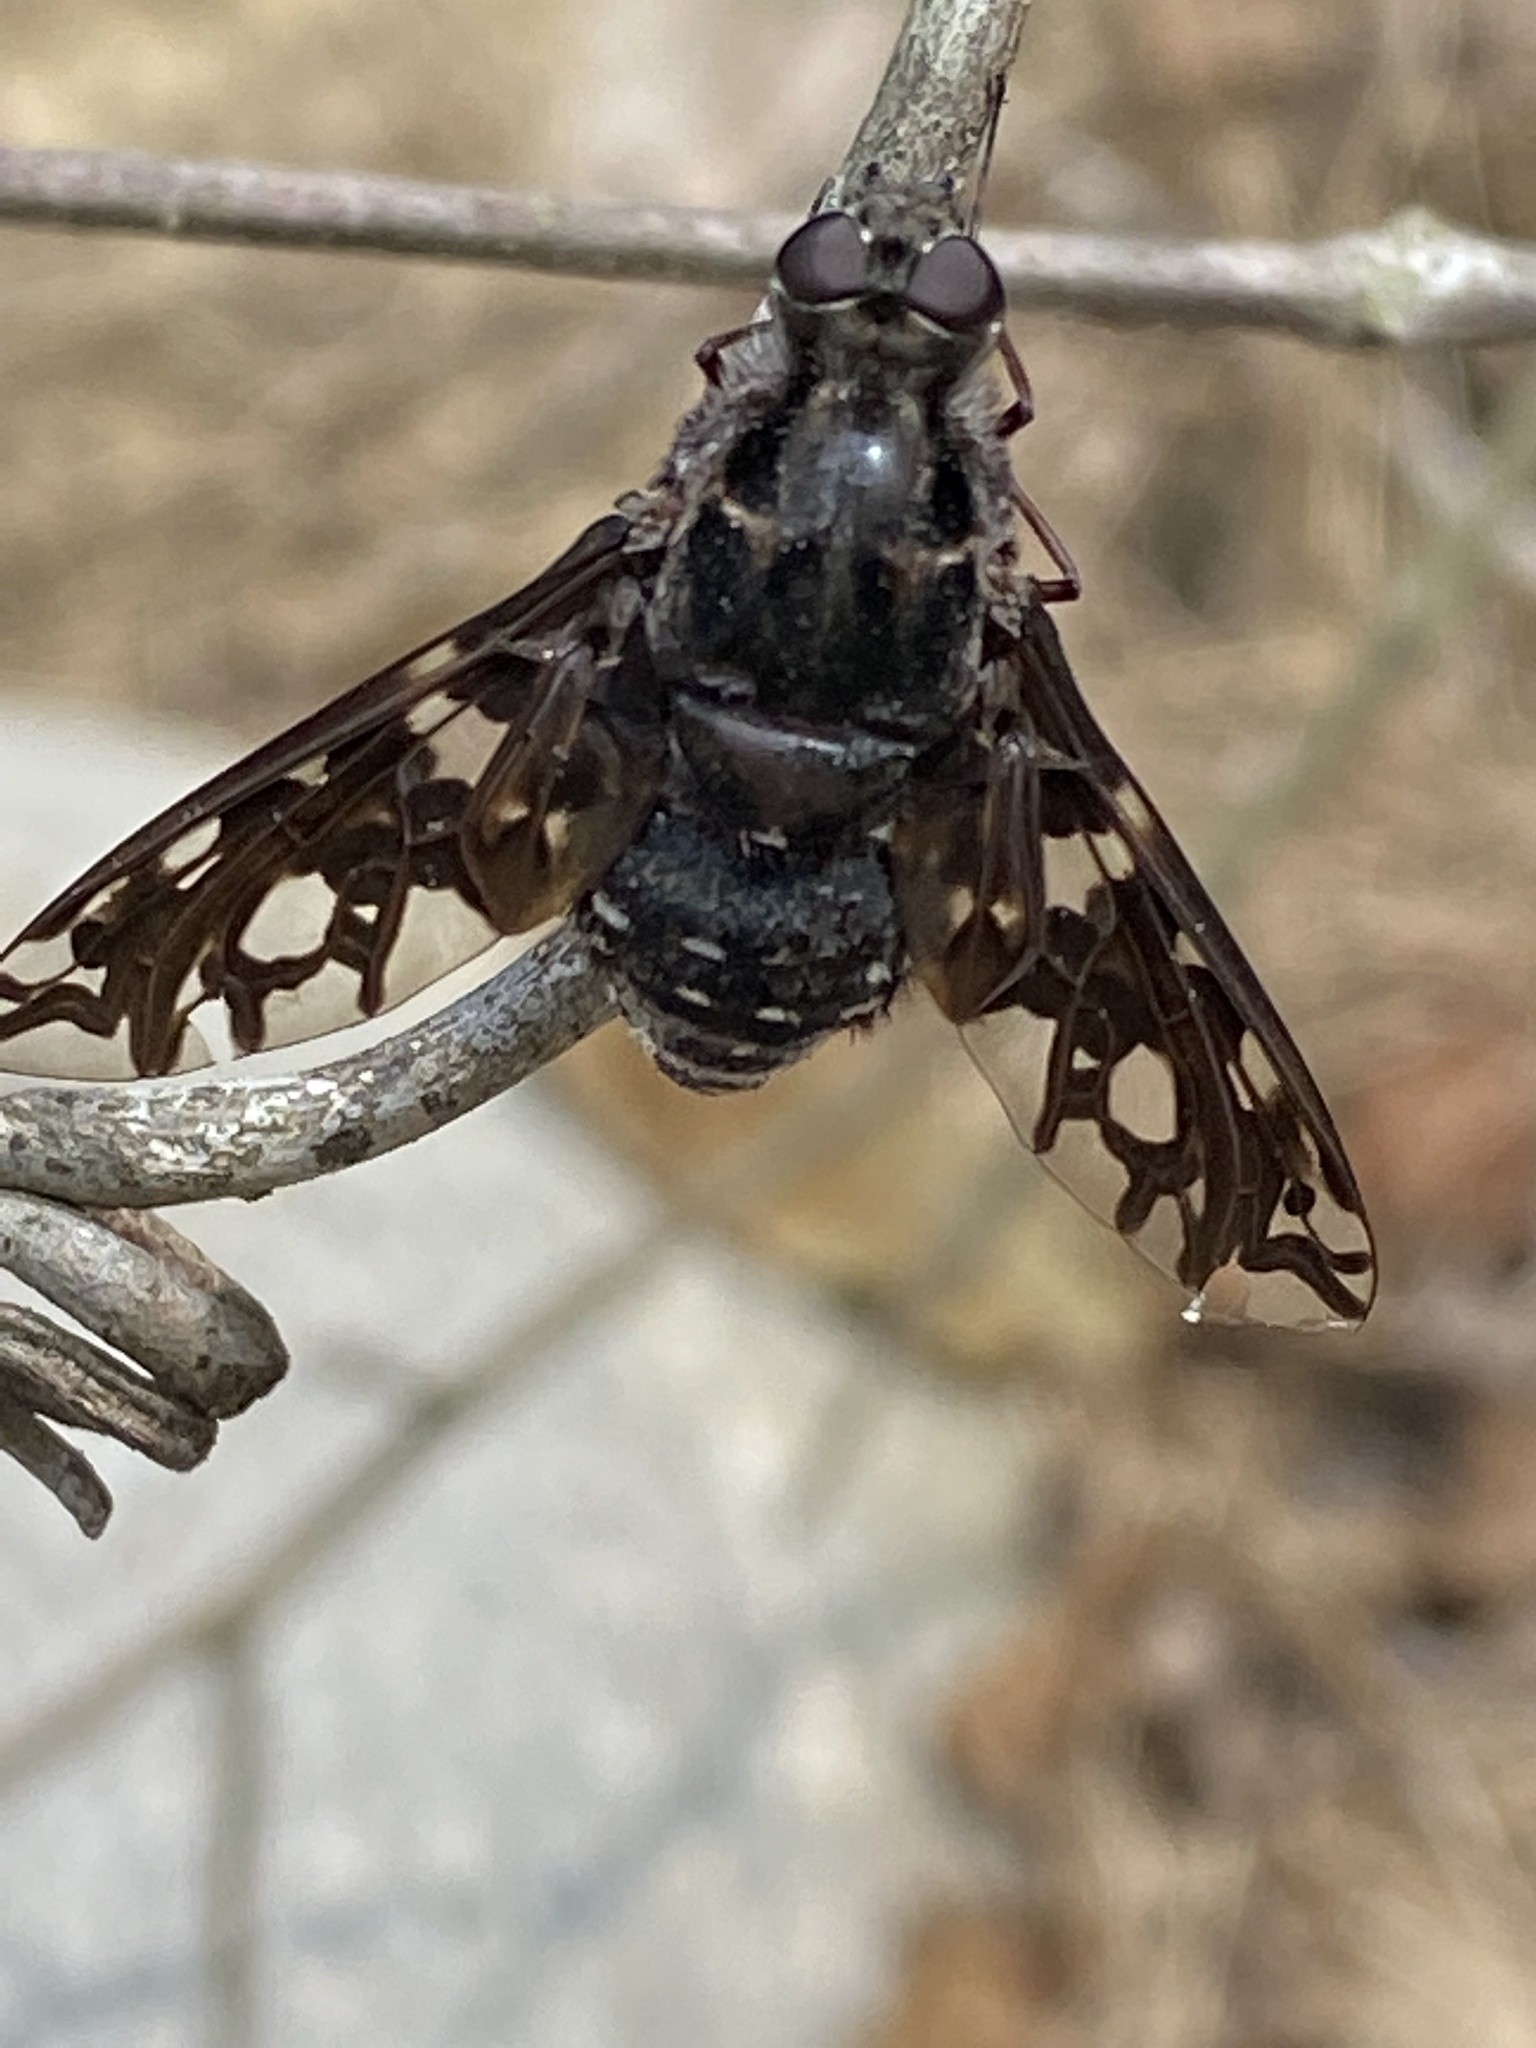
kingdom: Animalia
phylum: Arthropoda
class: Insecta
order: Diptera
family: Bombyliidae
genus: Xenox
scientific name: Xenox tigrinus
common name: Tiger bee fly
